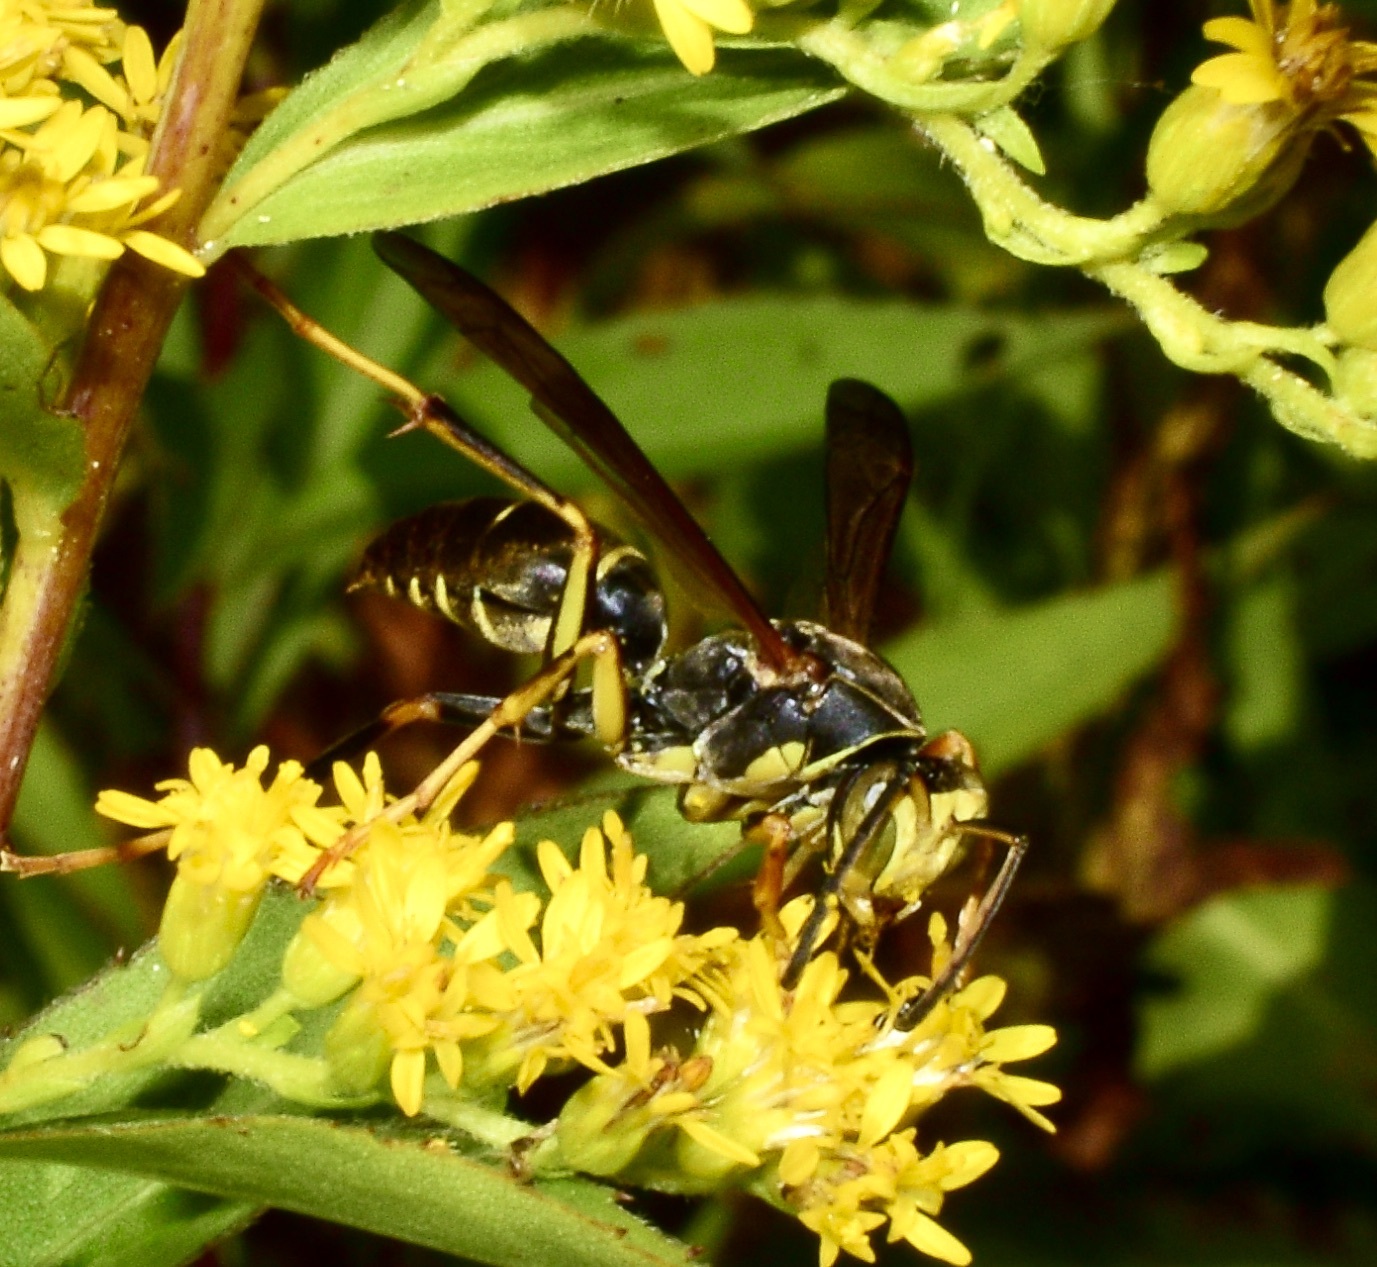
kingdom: Animalia
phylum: Arthropoda
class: Insecta
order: Hymenoptera
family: Eumenidae
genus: Polistes
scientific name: Polistes fuscatus
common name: Dark paper wasp
